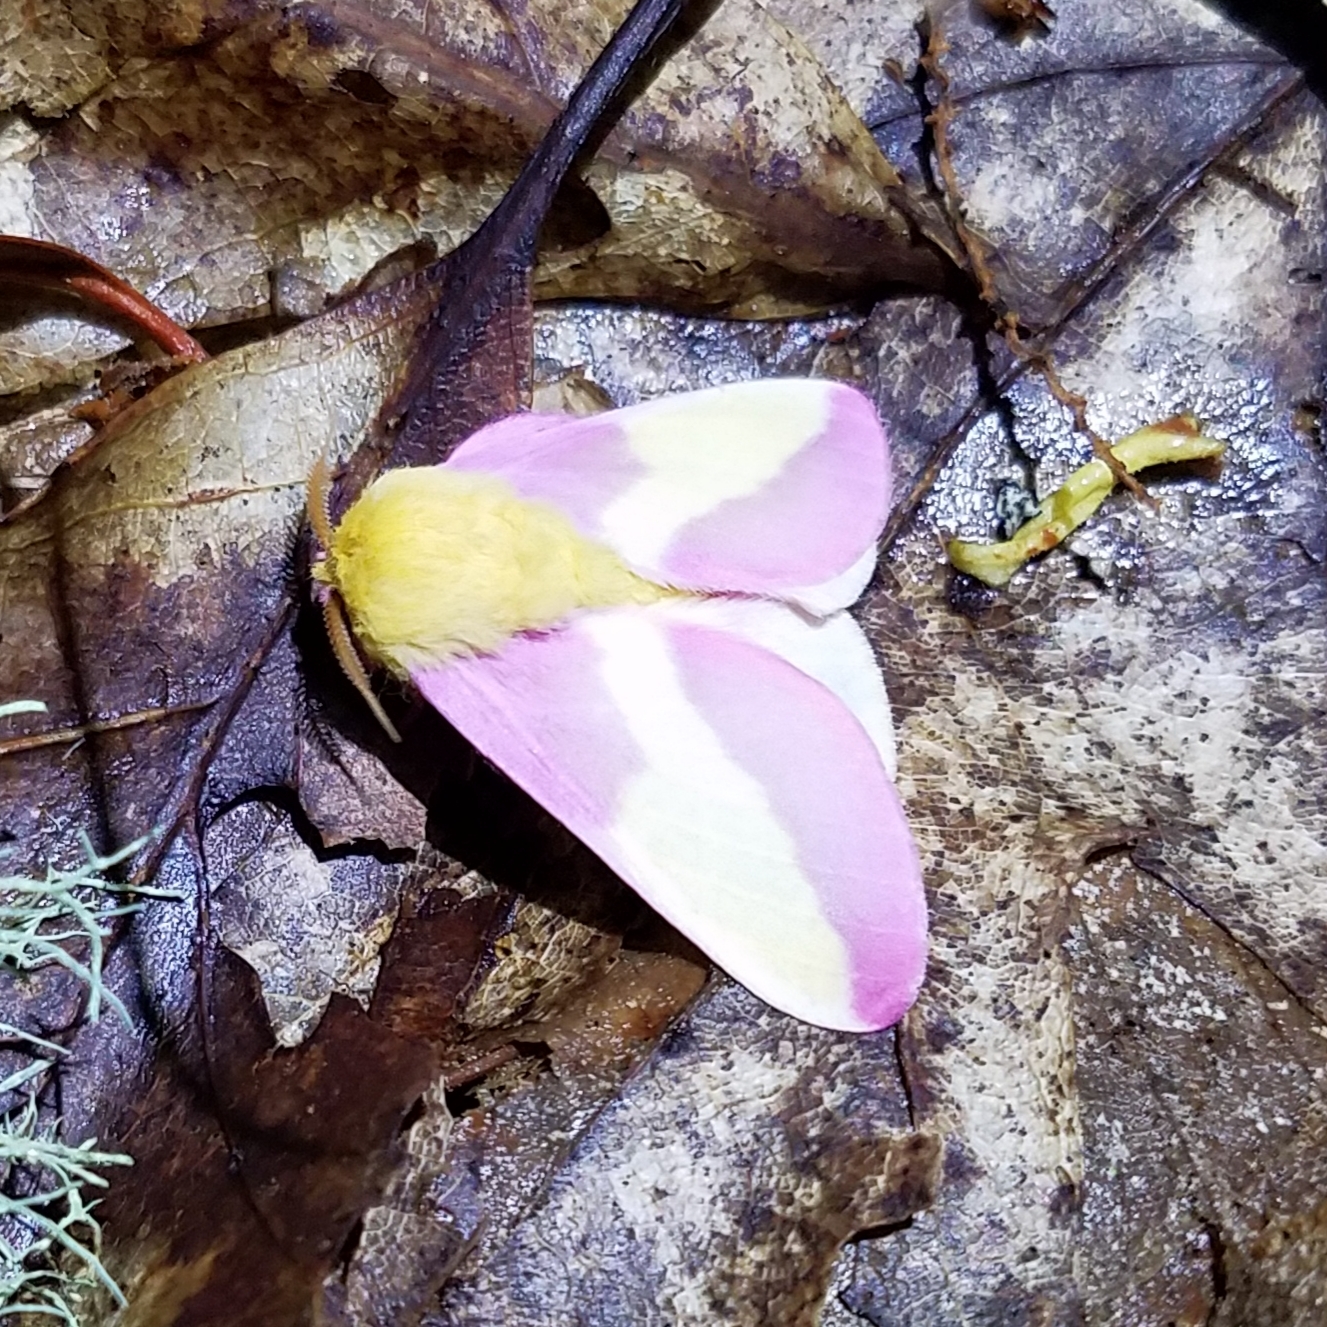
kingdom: Animalia
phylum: Arthropoda
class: Insecta
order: Lepidoptera
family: Saturniidae
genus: Dryocampa
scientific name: Dryocampa rubicunda
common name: Rosy maple moth
